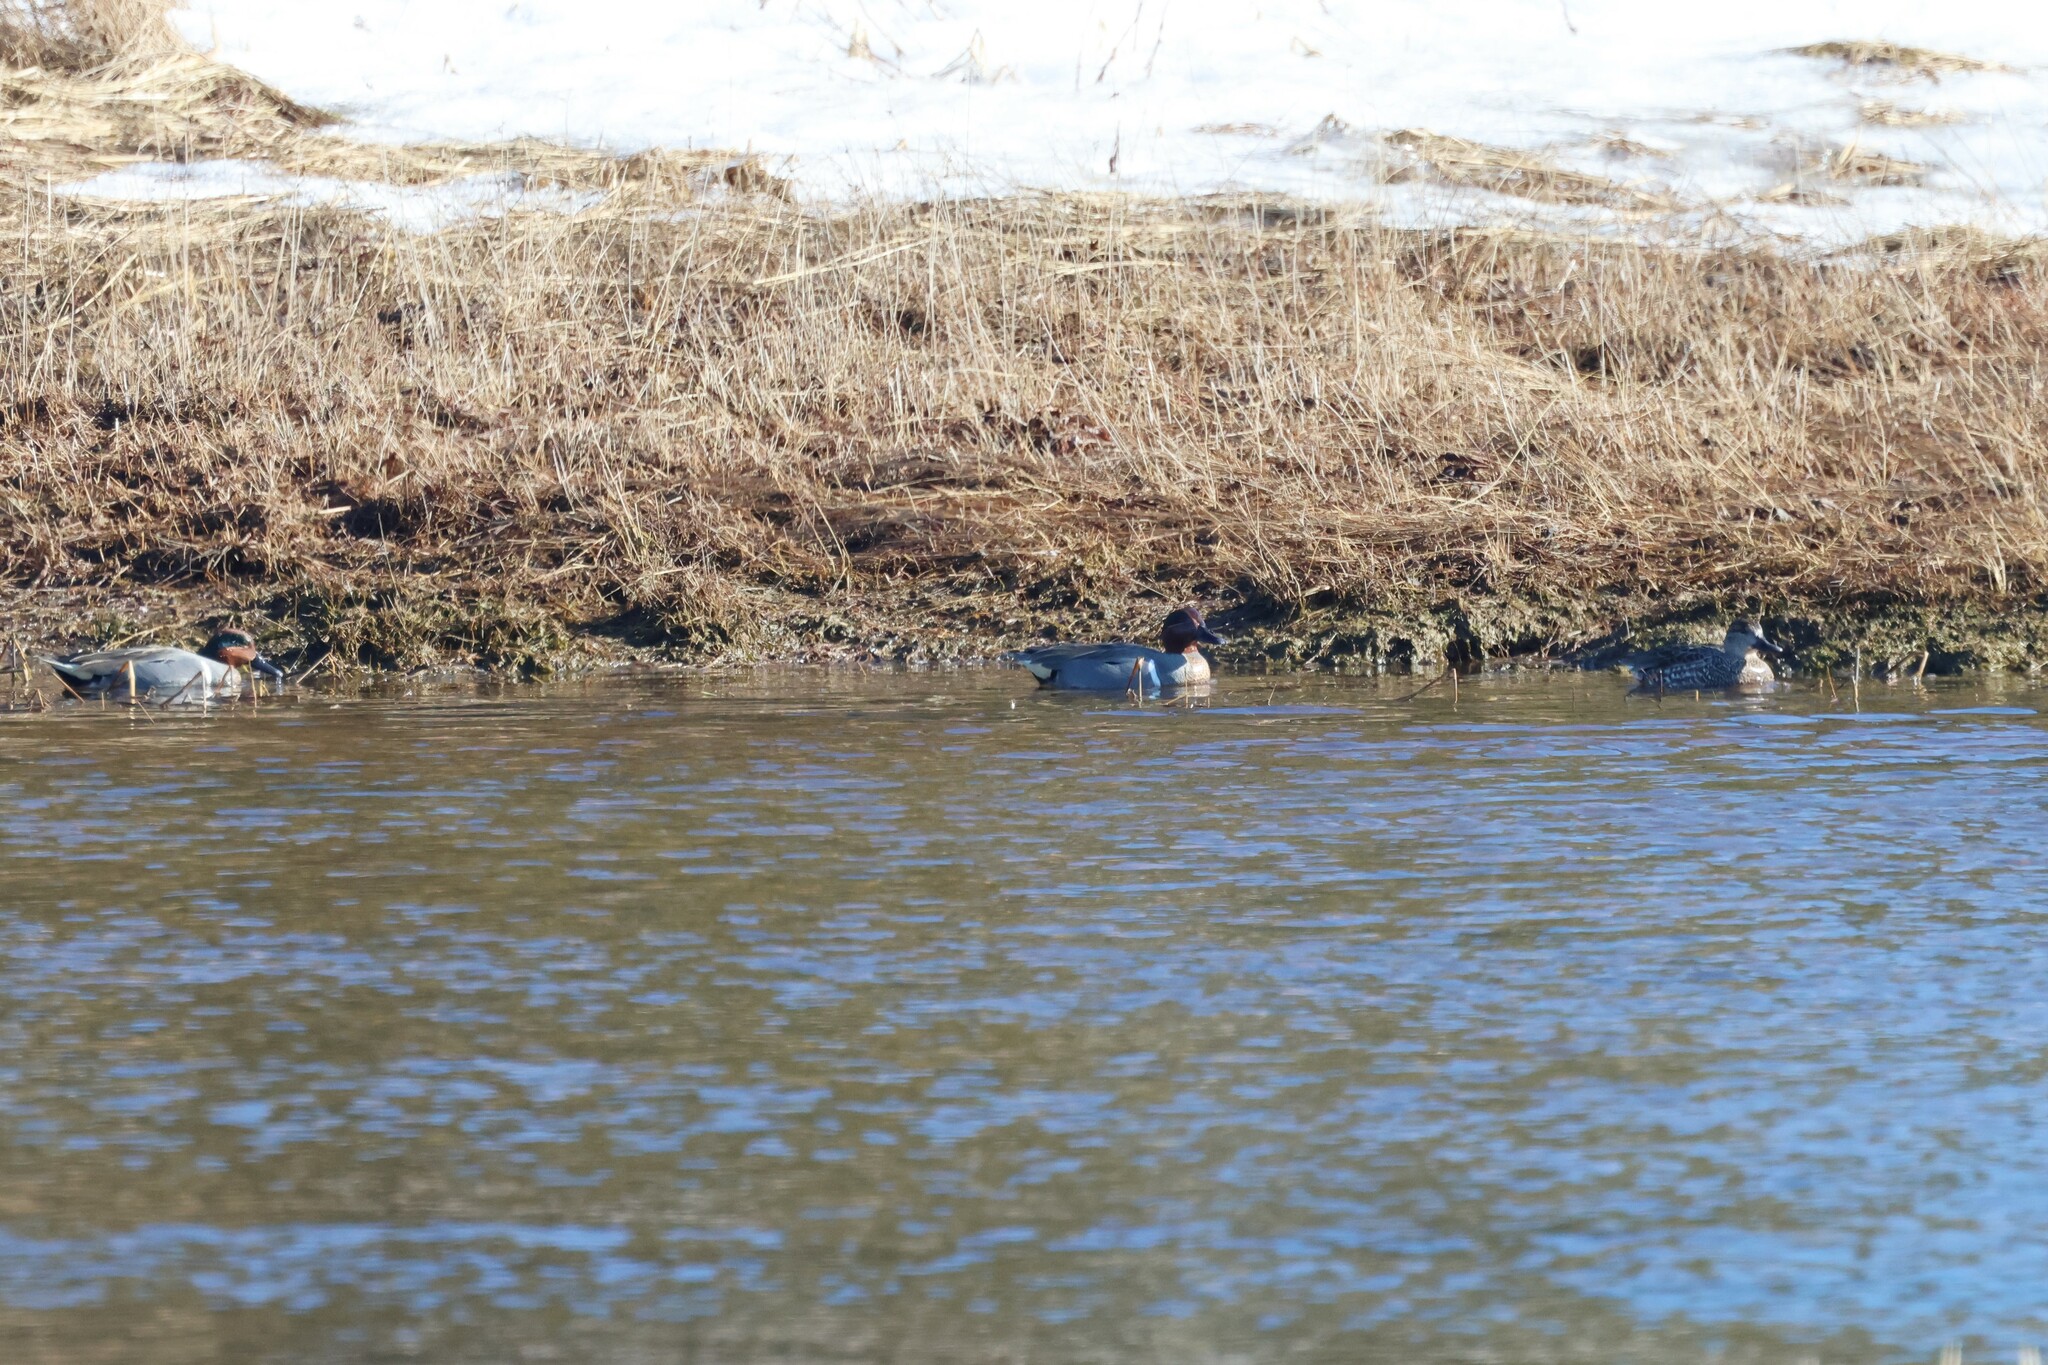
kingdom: Animalia
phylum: Chordata
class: Aves
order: Anseriformes
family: Anatidae
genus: Anas
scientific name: Anas carolinensis
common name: Green-winged teal
